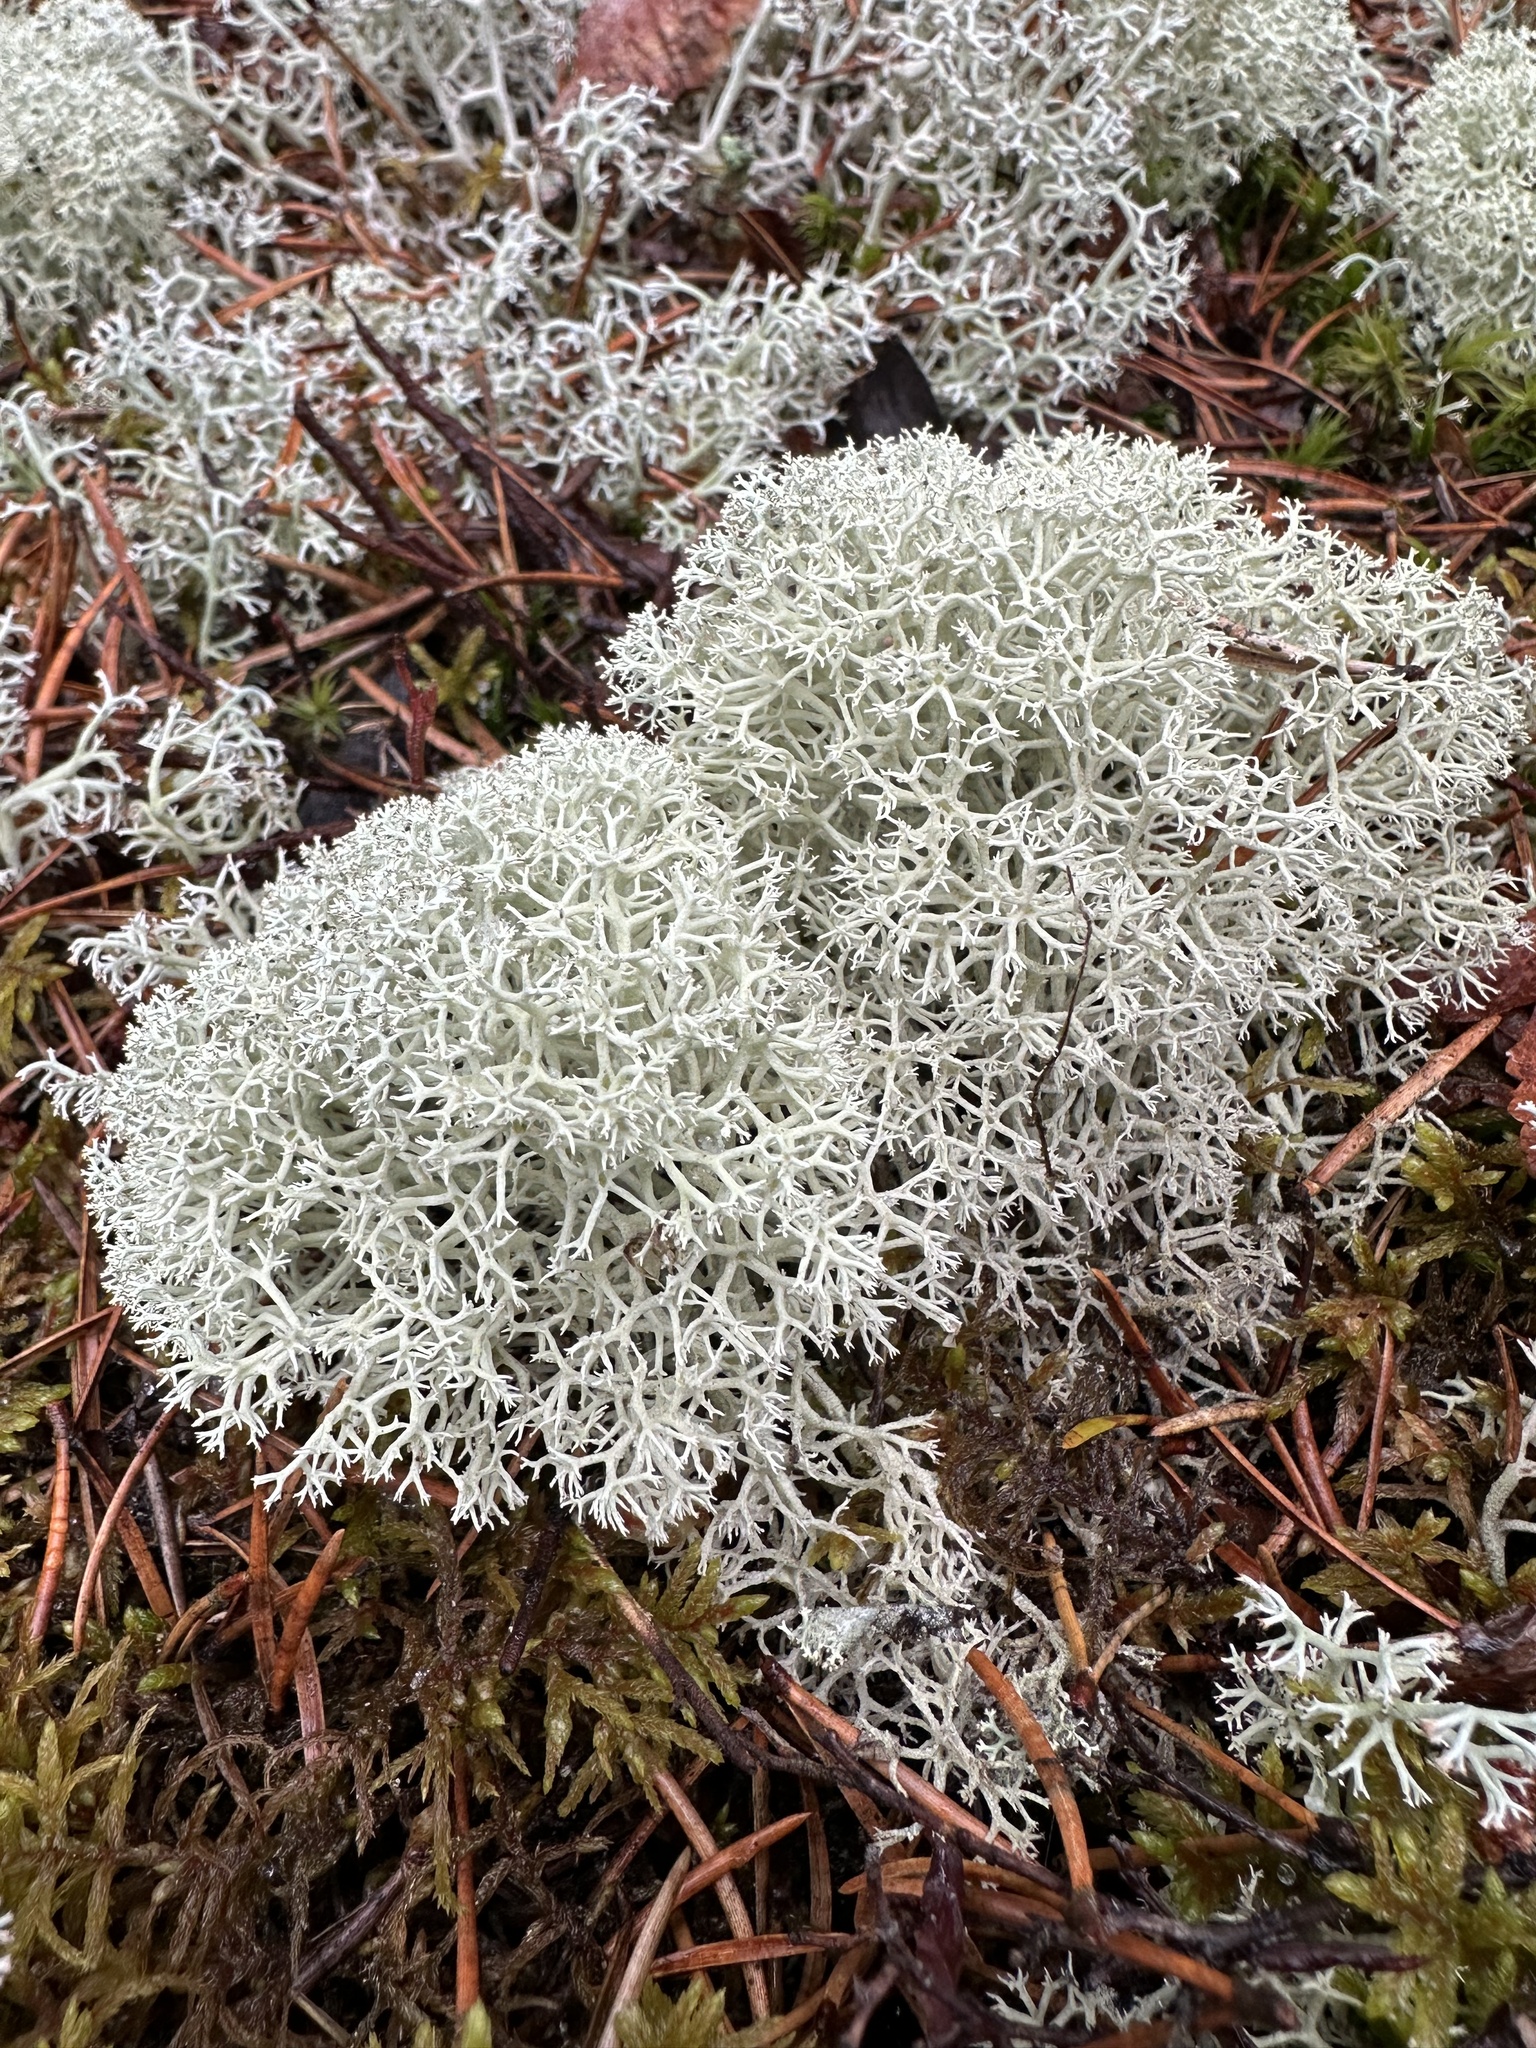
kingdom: Fungi
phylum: Ascomycota
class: Lecanoromycetes
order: Lecanorales
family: Cladoniaceae
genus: Cladonia
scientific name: Cladonia stellaris
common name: Star-tipped reindeer lichen
